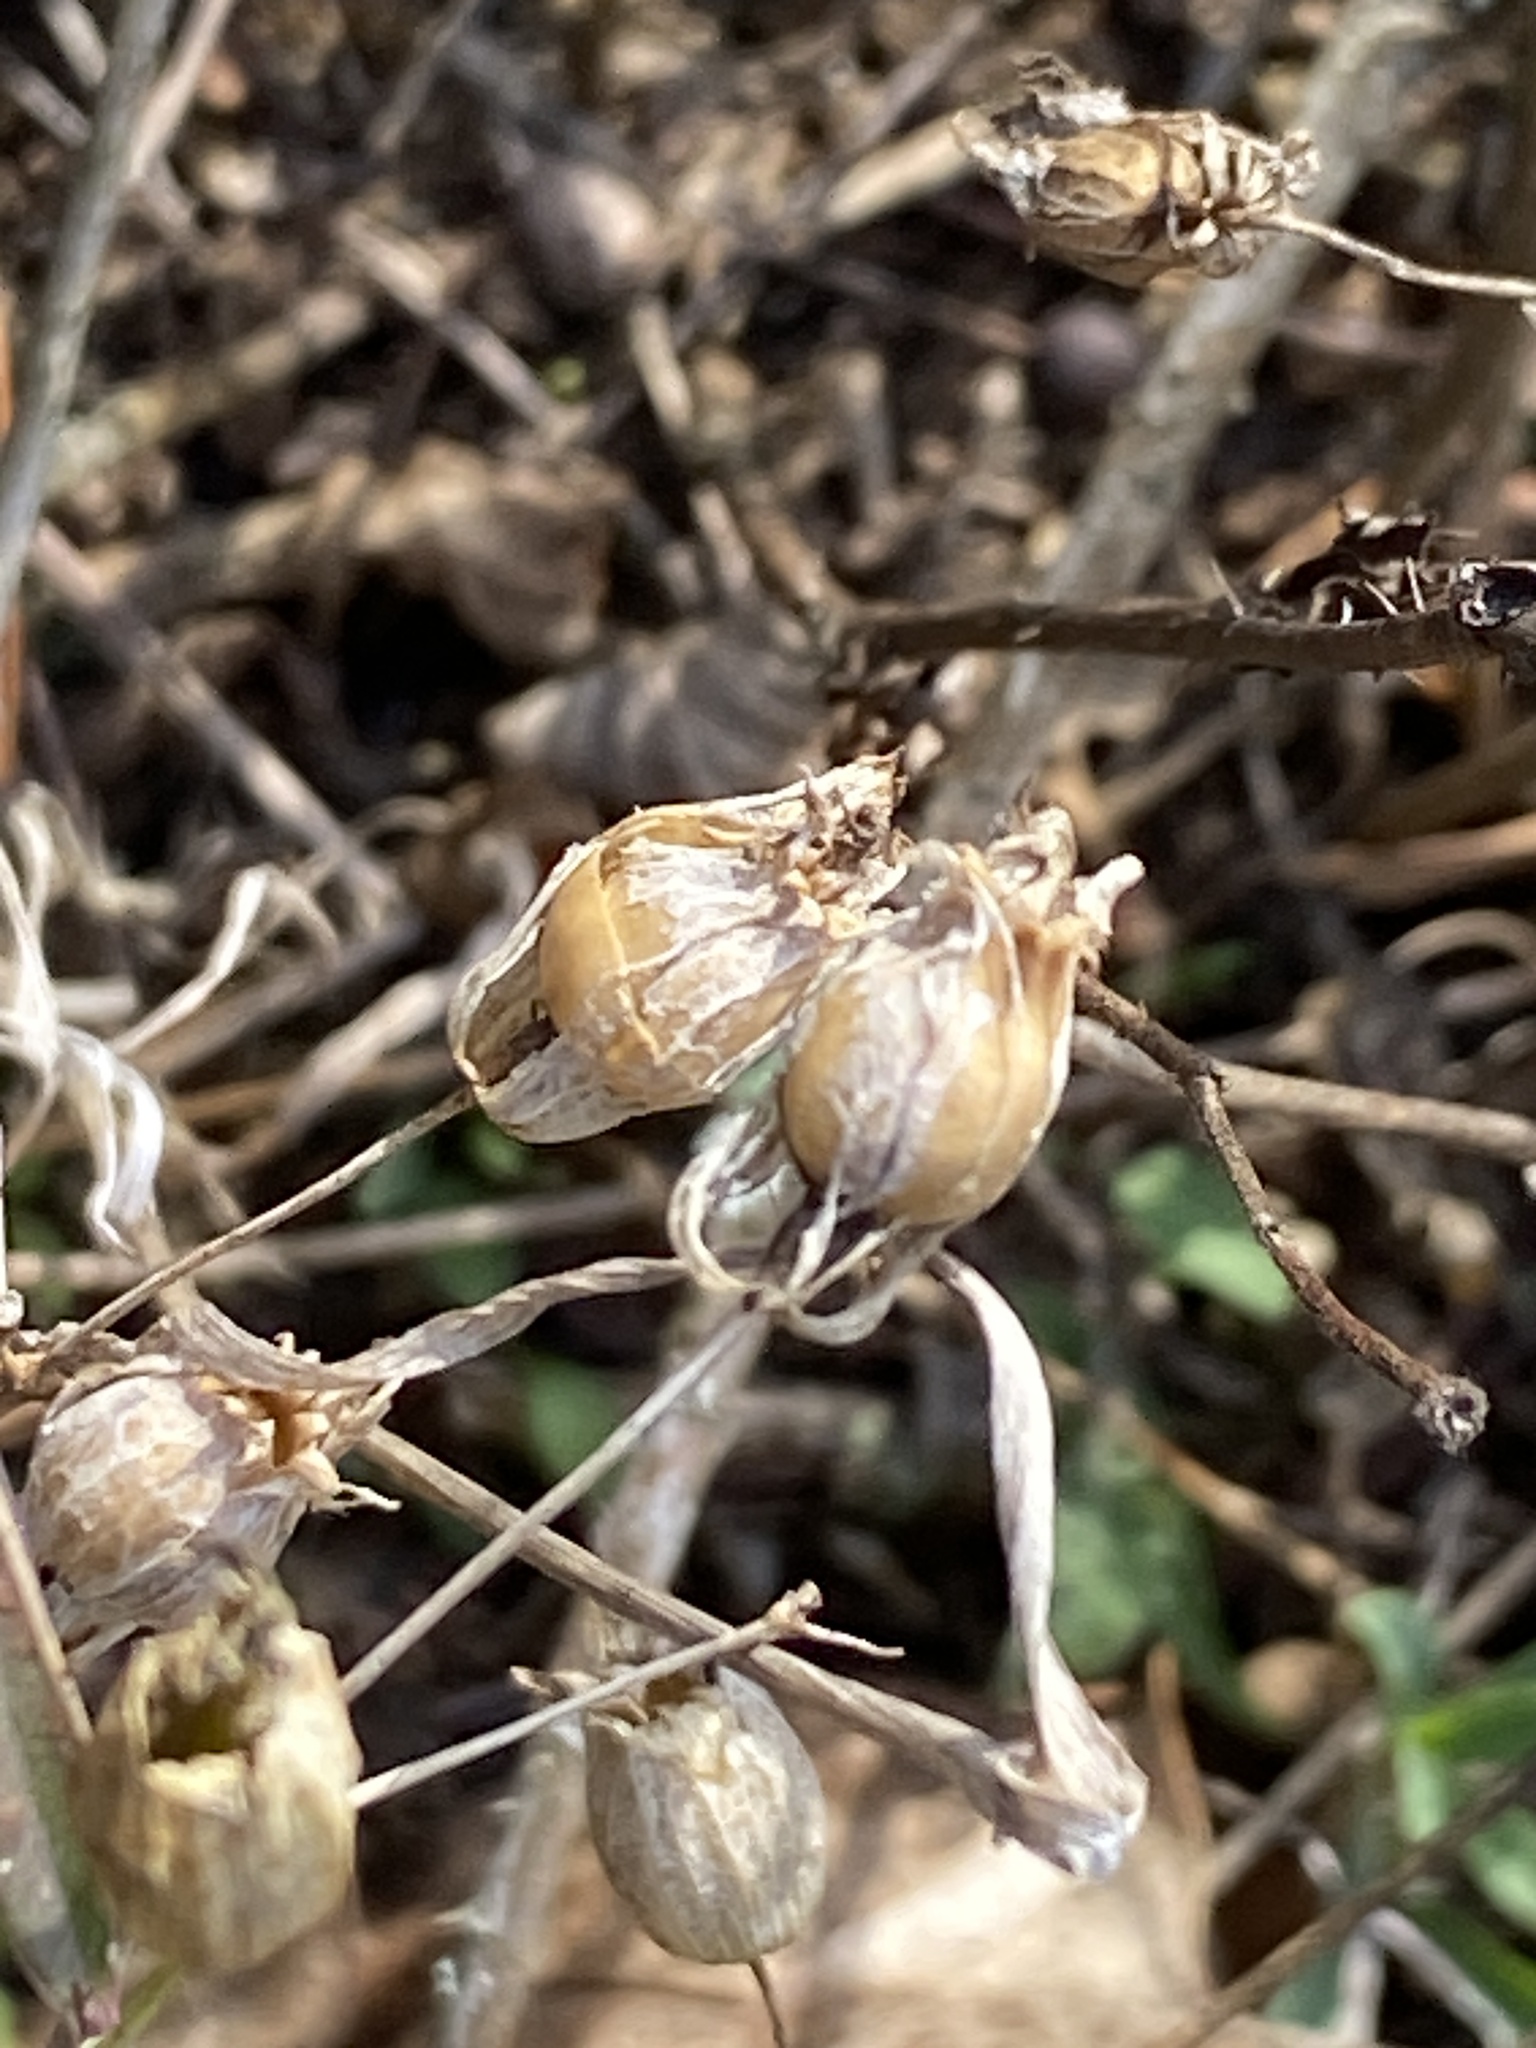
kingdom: Plantae
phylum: Tracheophyta
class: Magnoliopsida
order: Caryophyllales
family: Caryophyllaceae
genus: Silene
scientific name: Silene vulgaris
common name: Bladder campion
